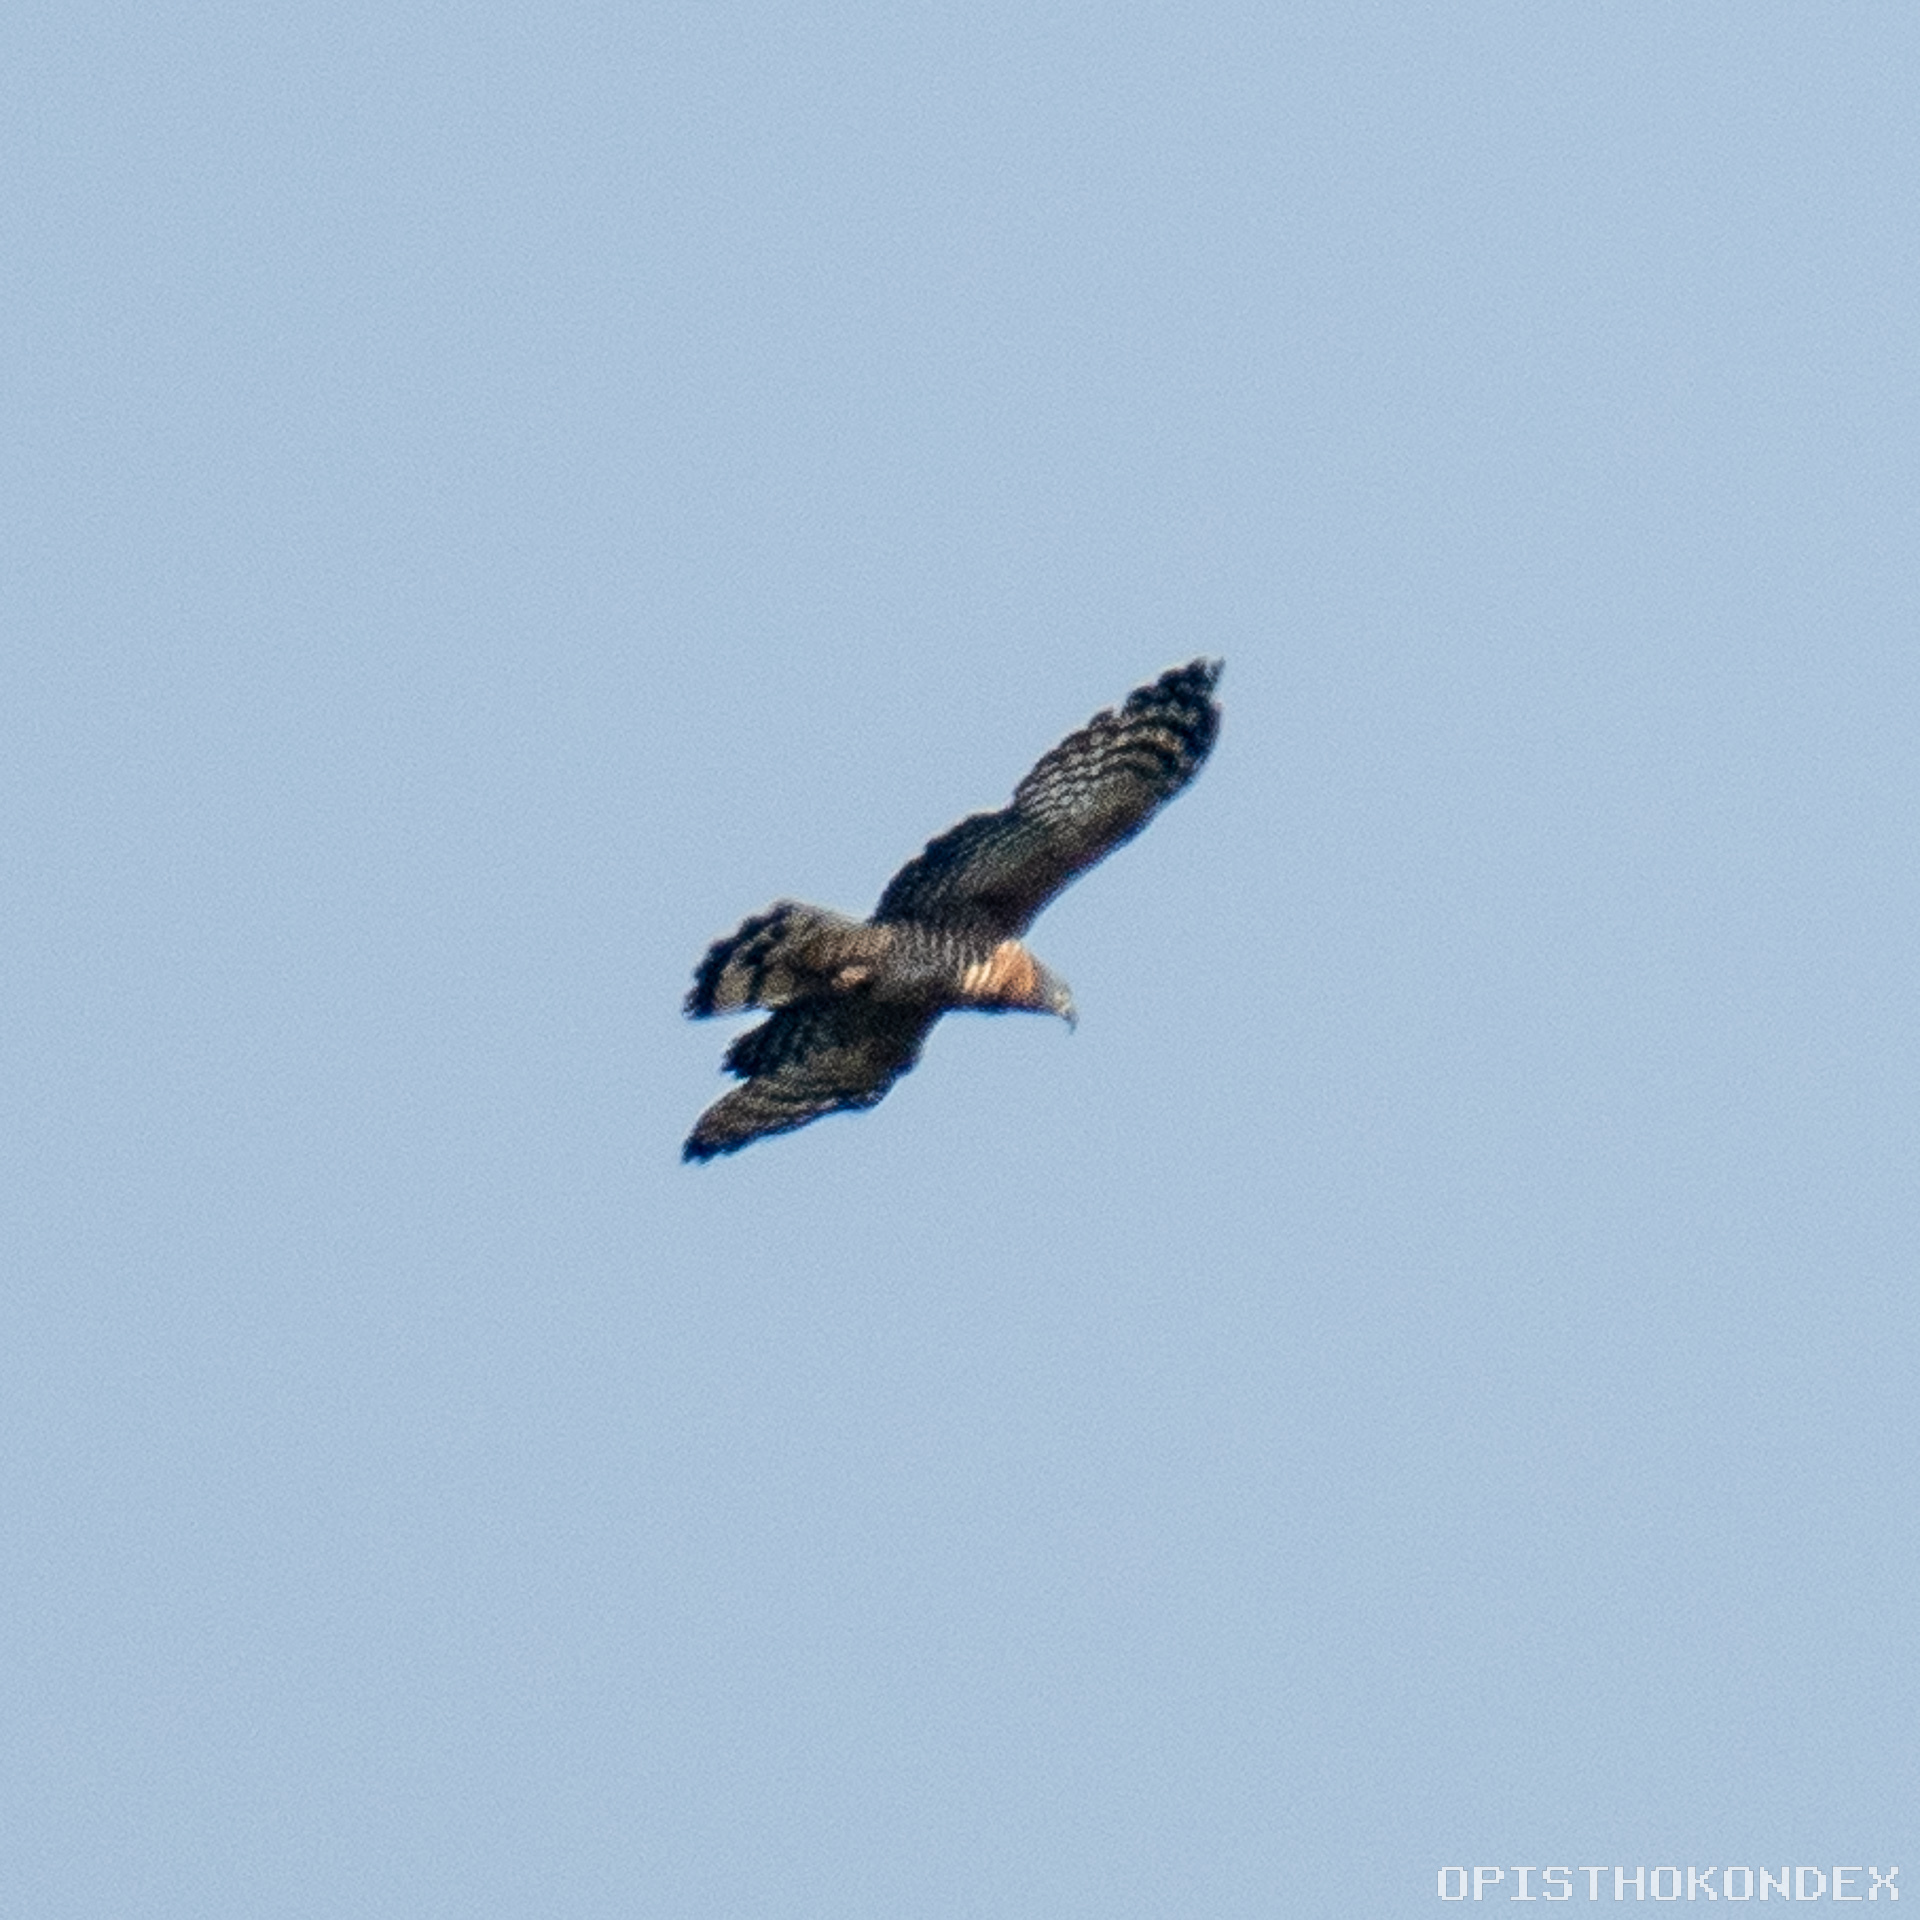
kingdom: Animalia
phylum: Chordata
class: Aves
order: Accipitriformes
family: Accipitridae
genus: Chondrohierax
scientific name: Chondrohierax uncinatus
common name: Hook-billed kite
